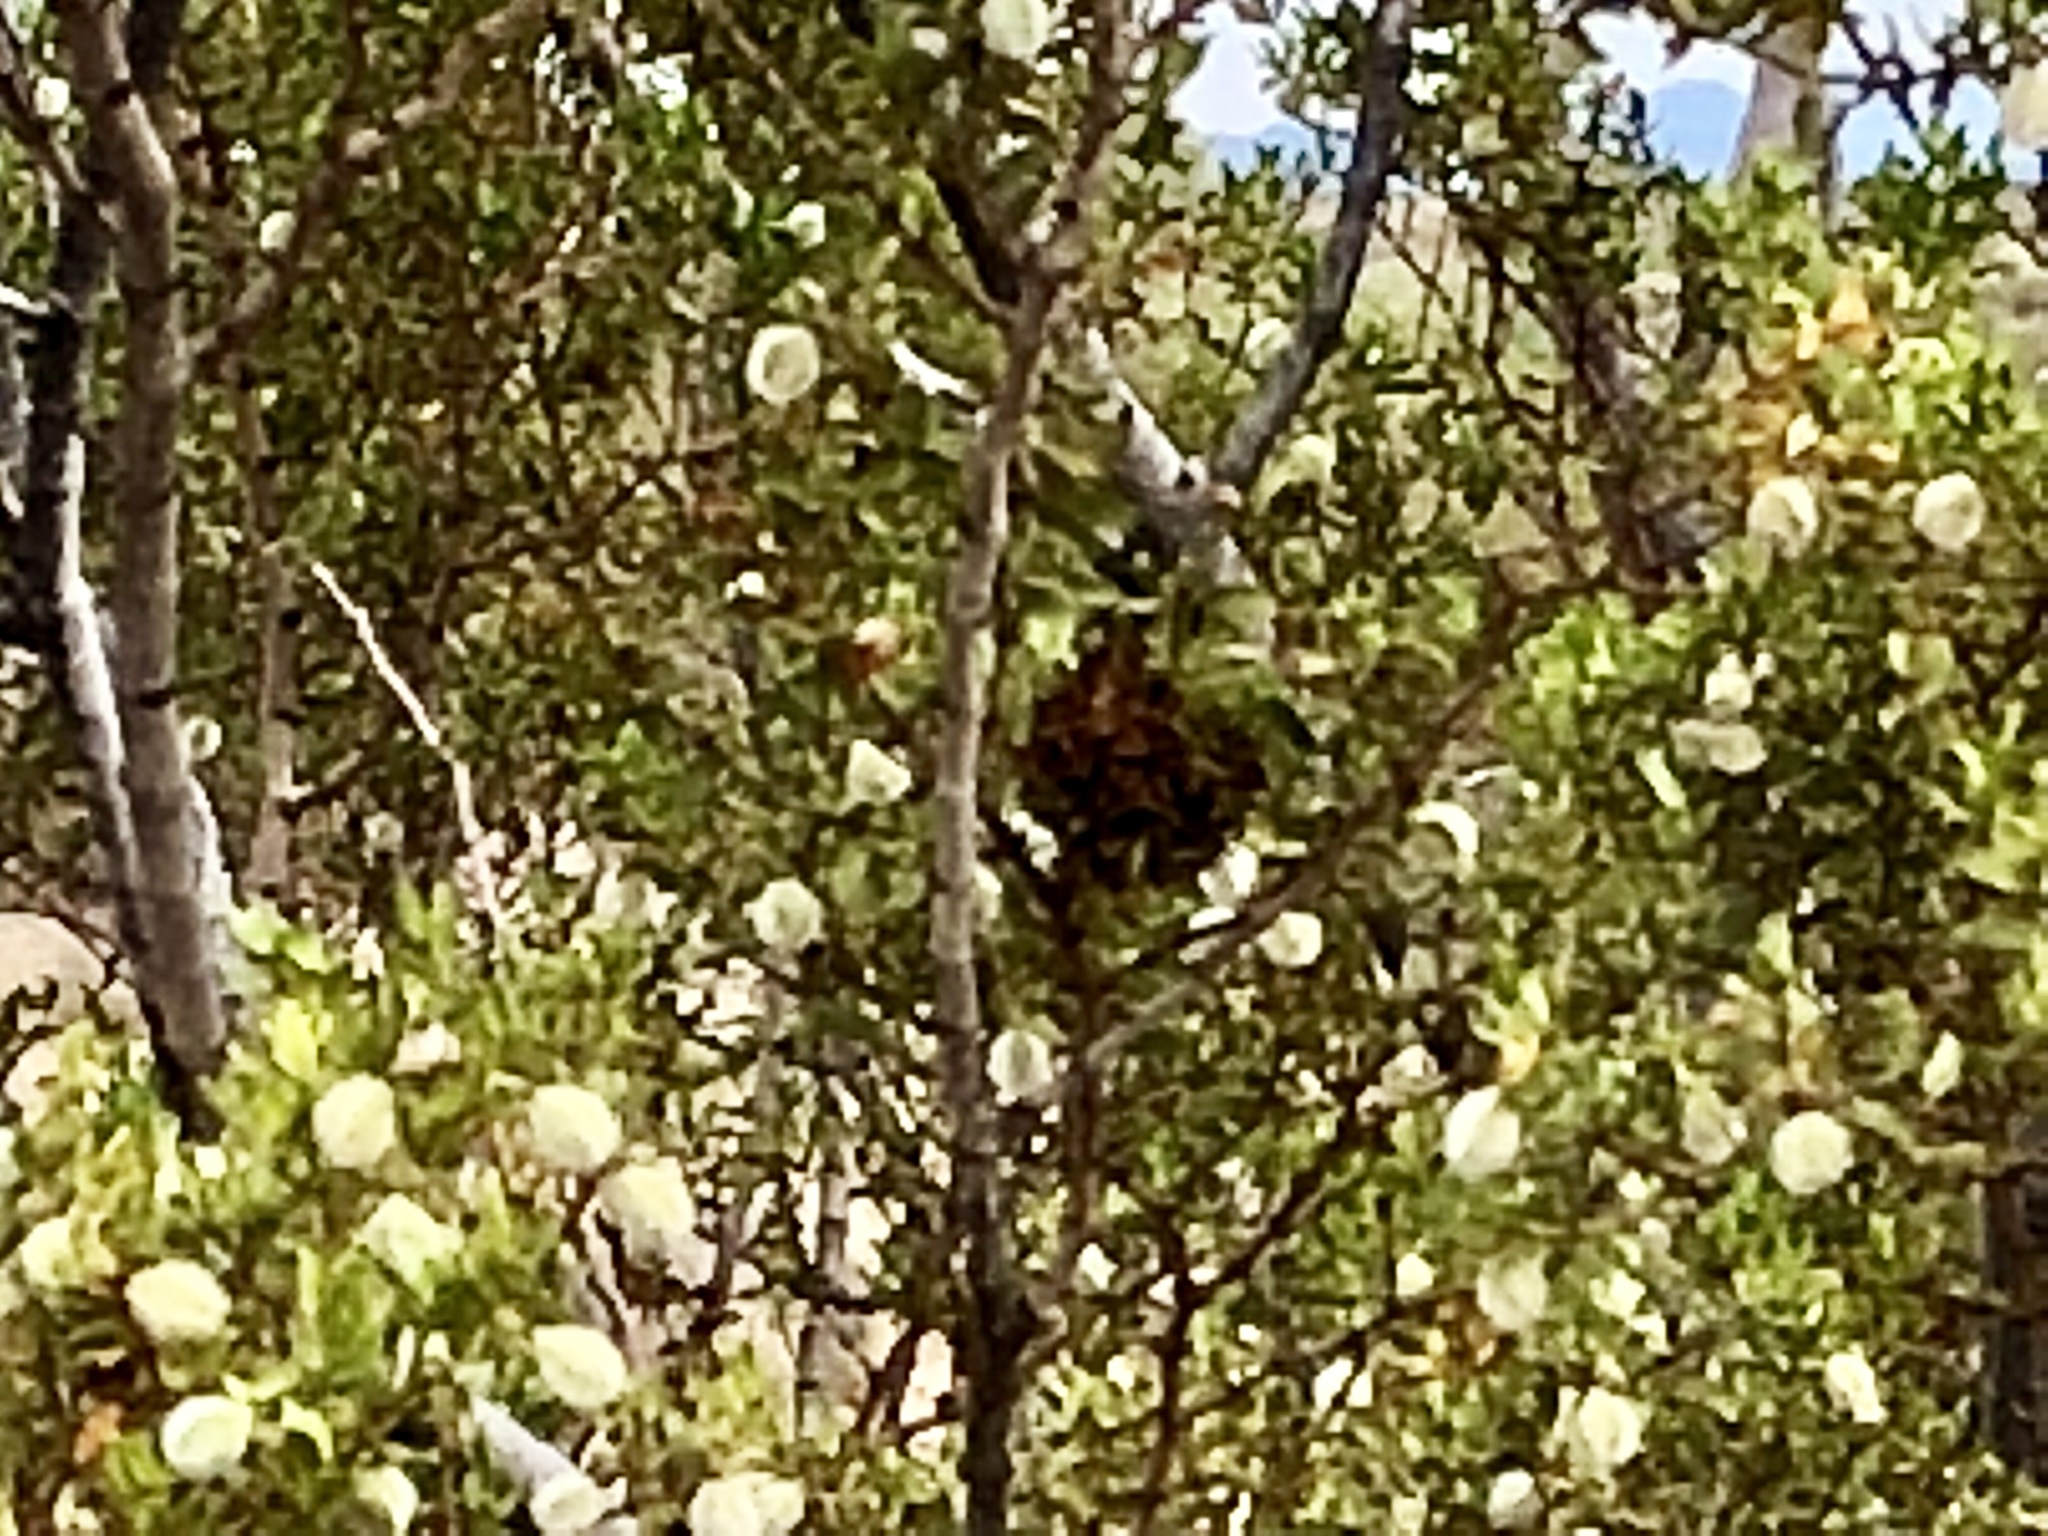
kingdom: Animalia
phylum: Arthropoda
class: Insecta
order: Diptera
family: Cecidomyiidae
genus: Asphondylia
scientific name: Asphondylia auripila
